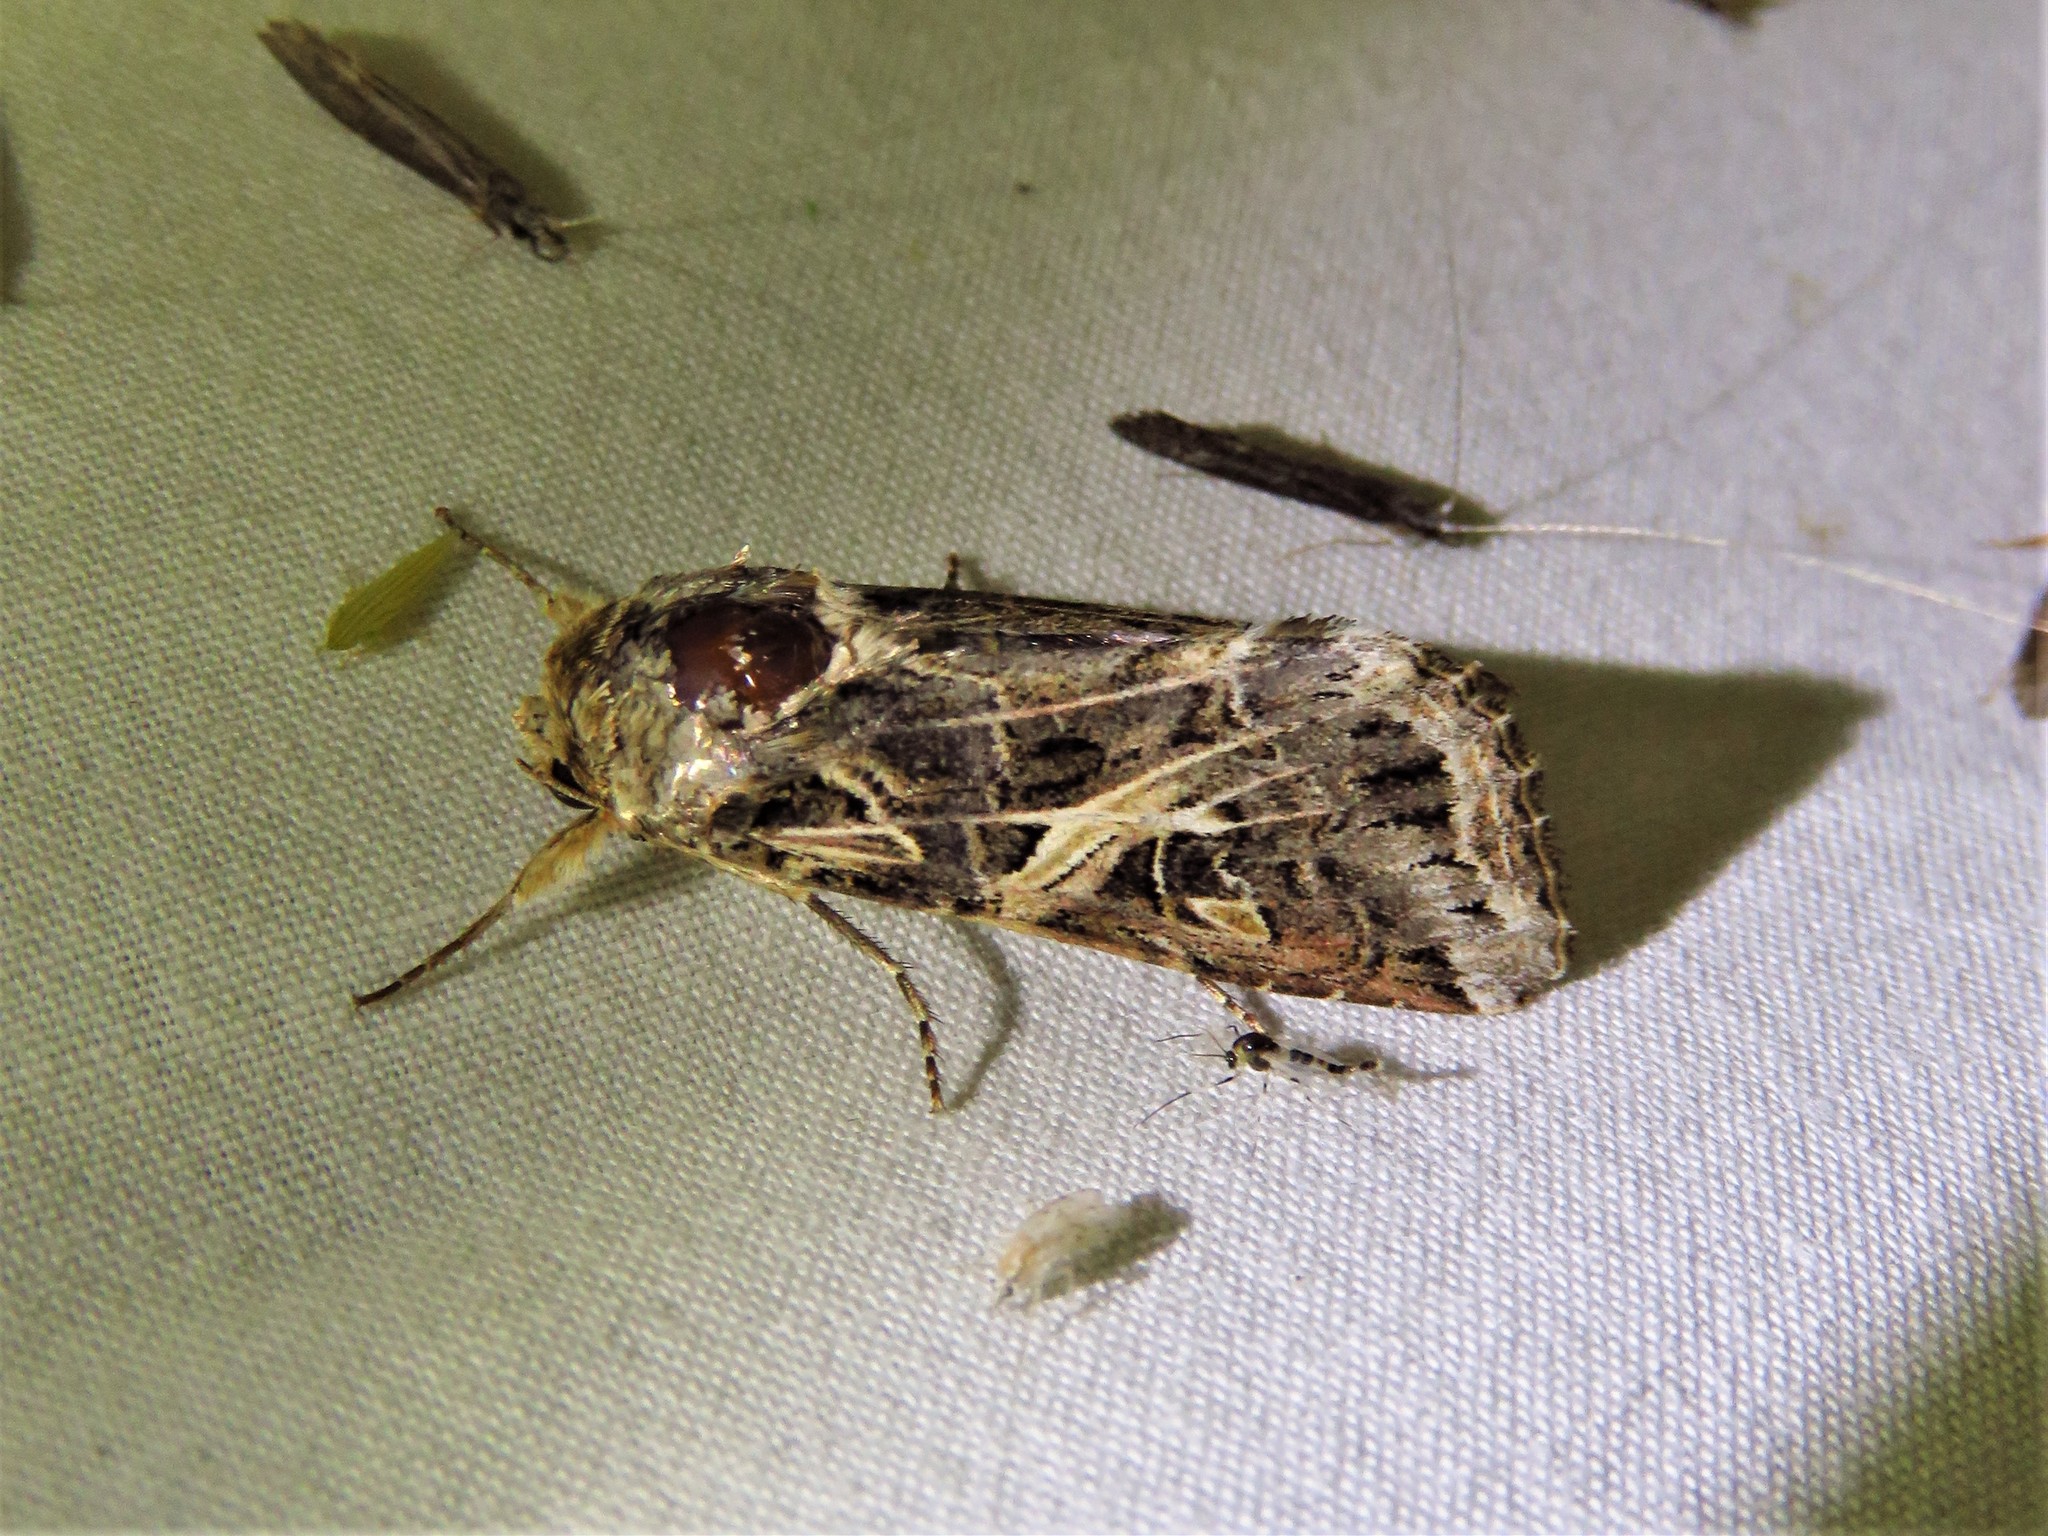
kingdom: Animalia
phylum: Arthropoda
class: Insecta
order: Lepidoptera
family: Noctuidae
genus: Spodoptera
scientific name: Spodoptera ornithogalli
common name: Yellow-striped armyworm
